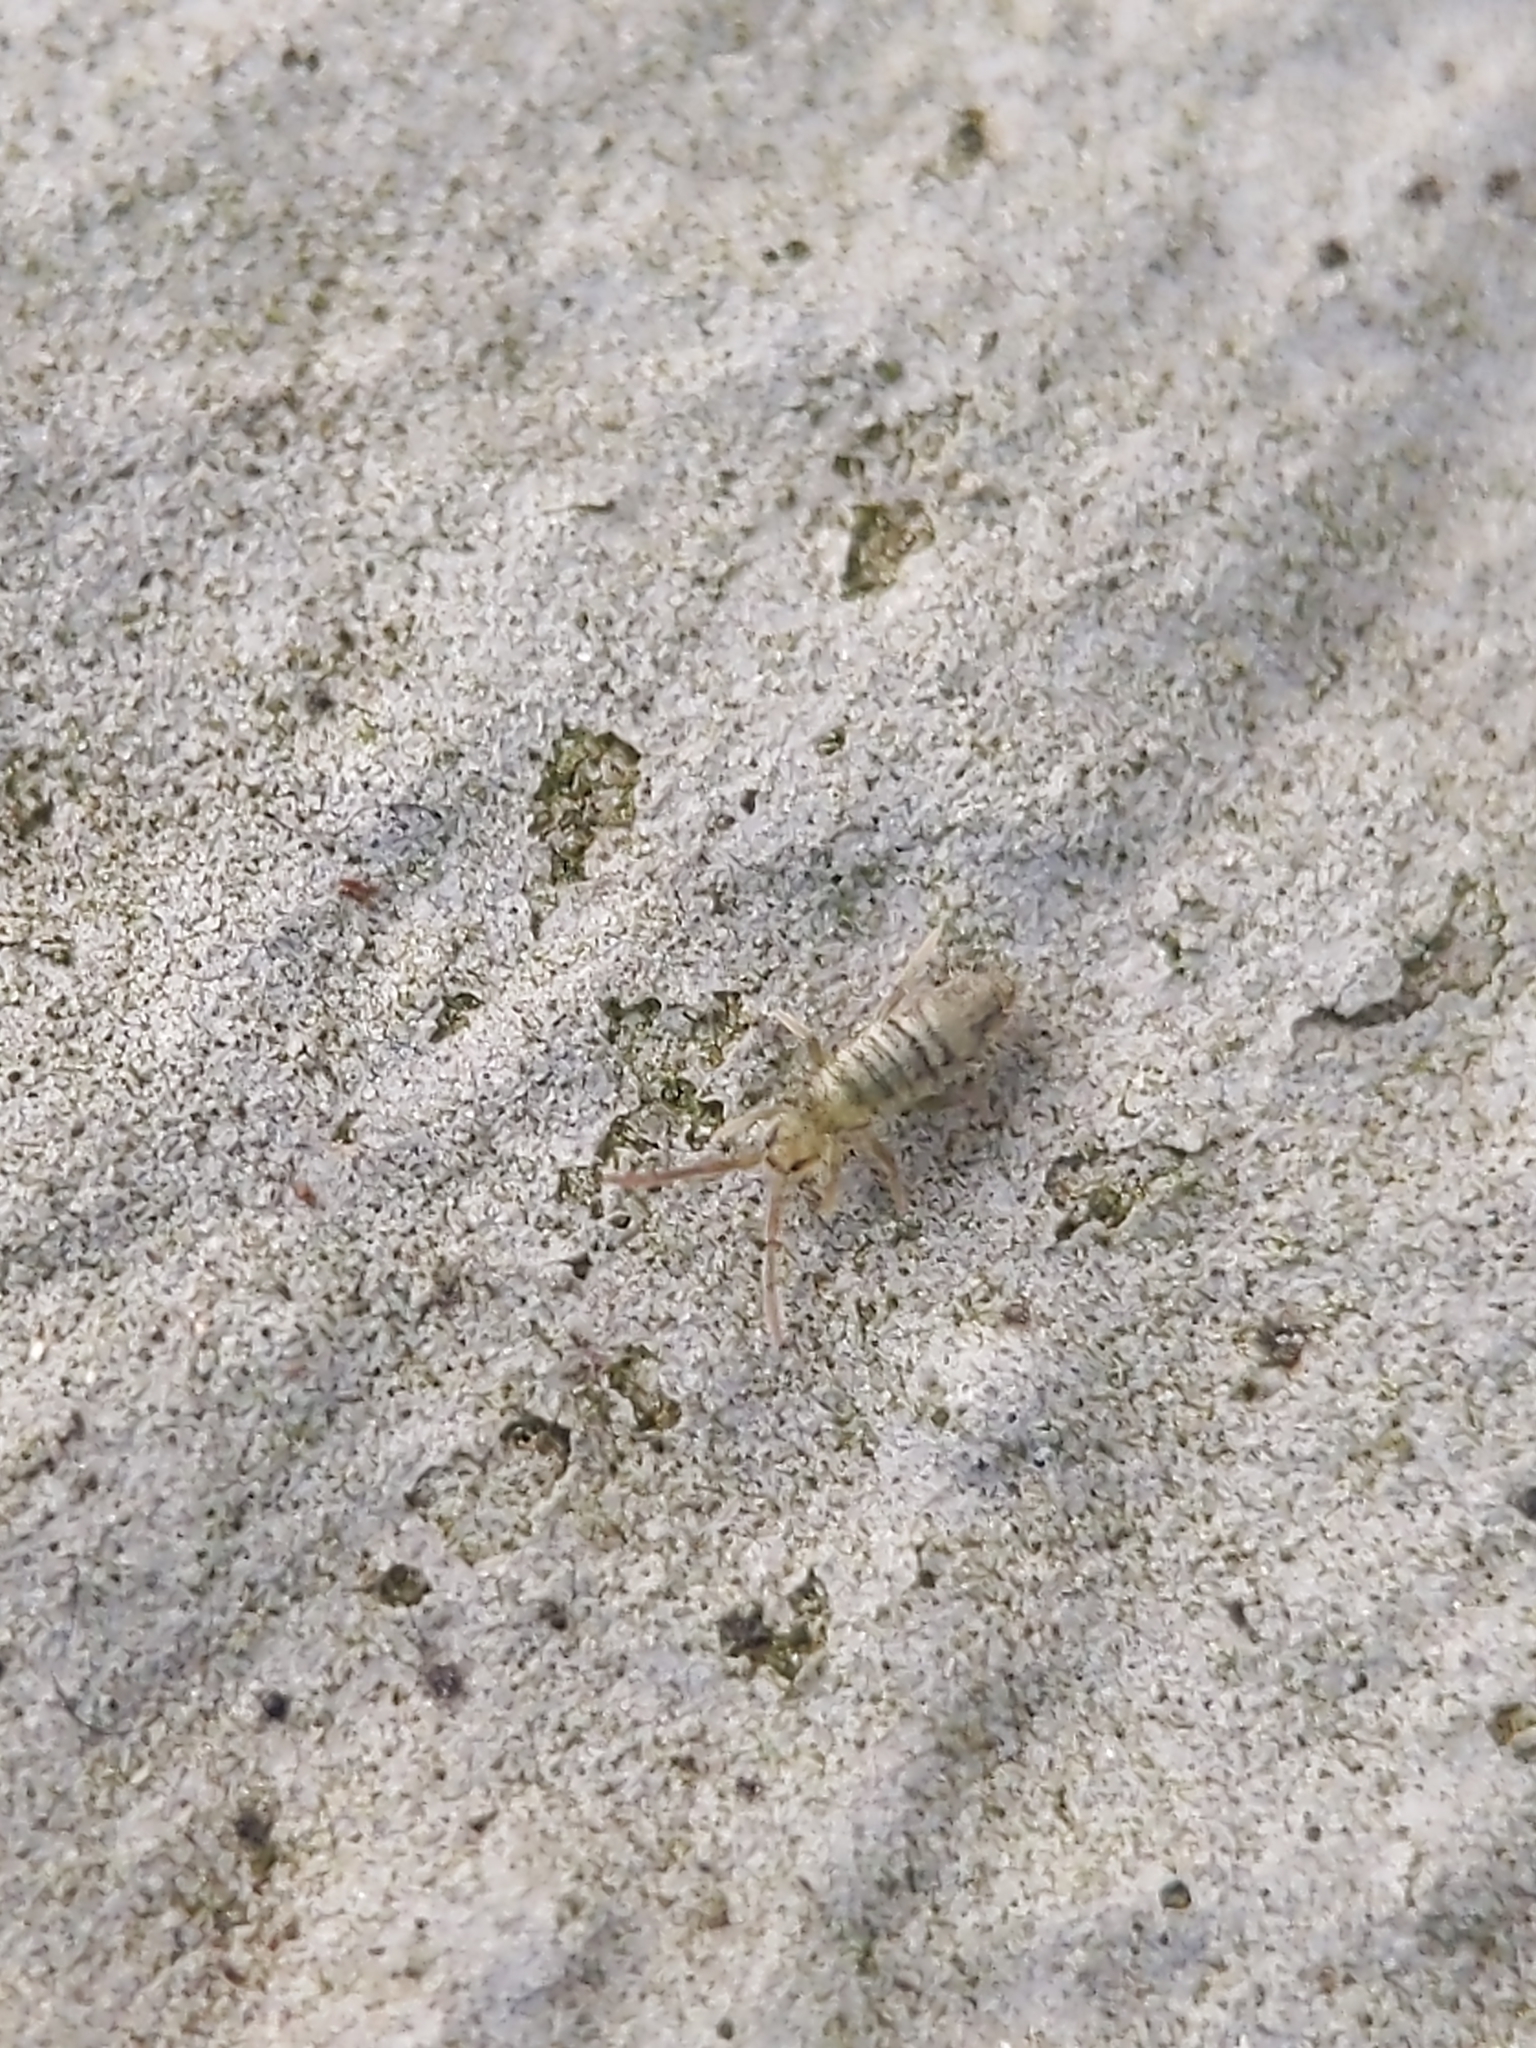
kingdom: Animalia
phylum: Arthropoda
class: Collembola
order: Entomobryomorpha
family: Entomobryidae
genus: Entomobrya
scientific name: Entomobrya nivalis
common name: Cosmopolitan springtail
